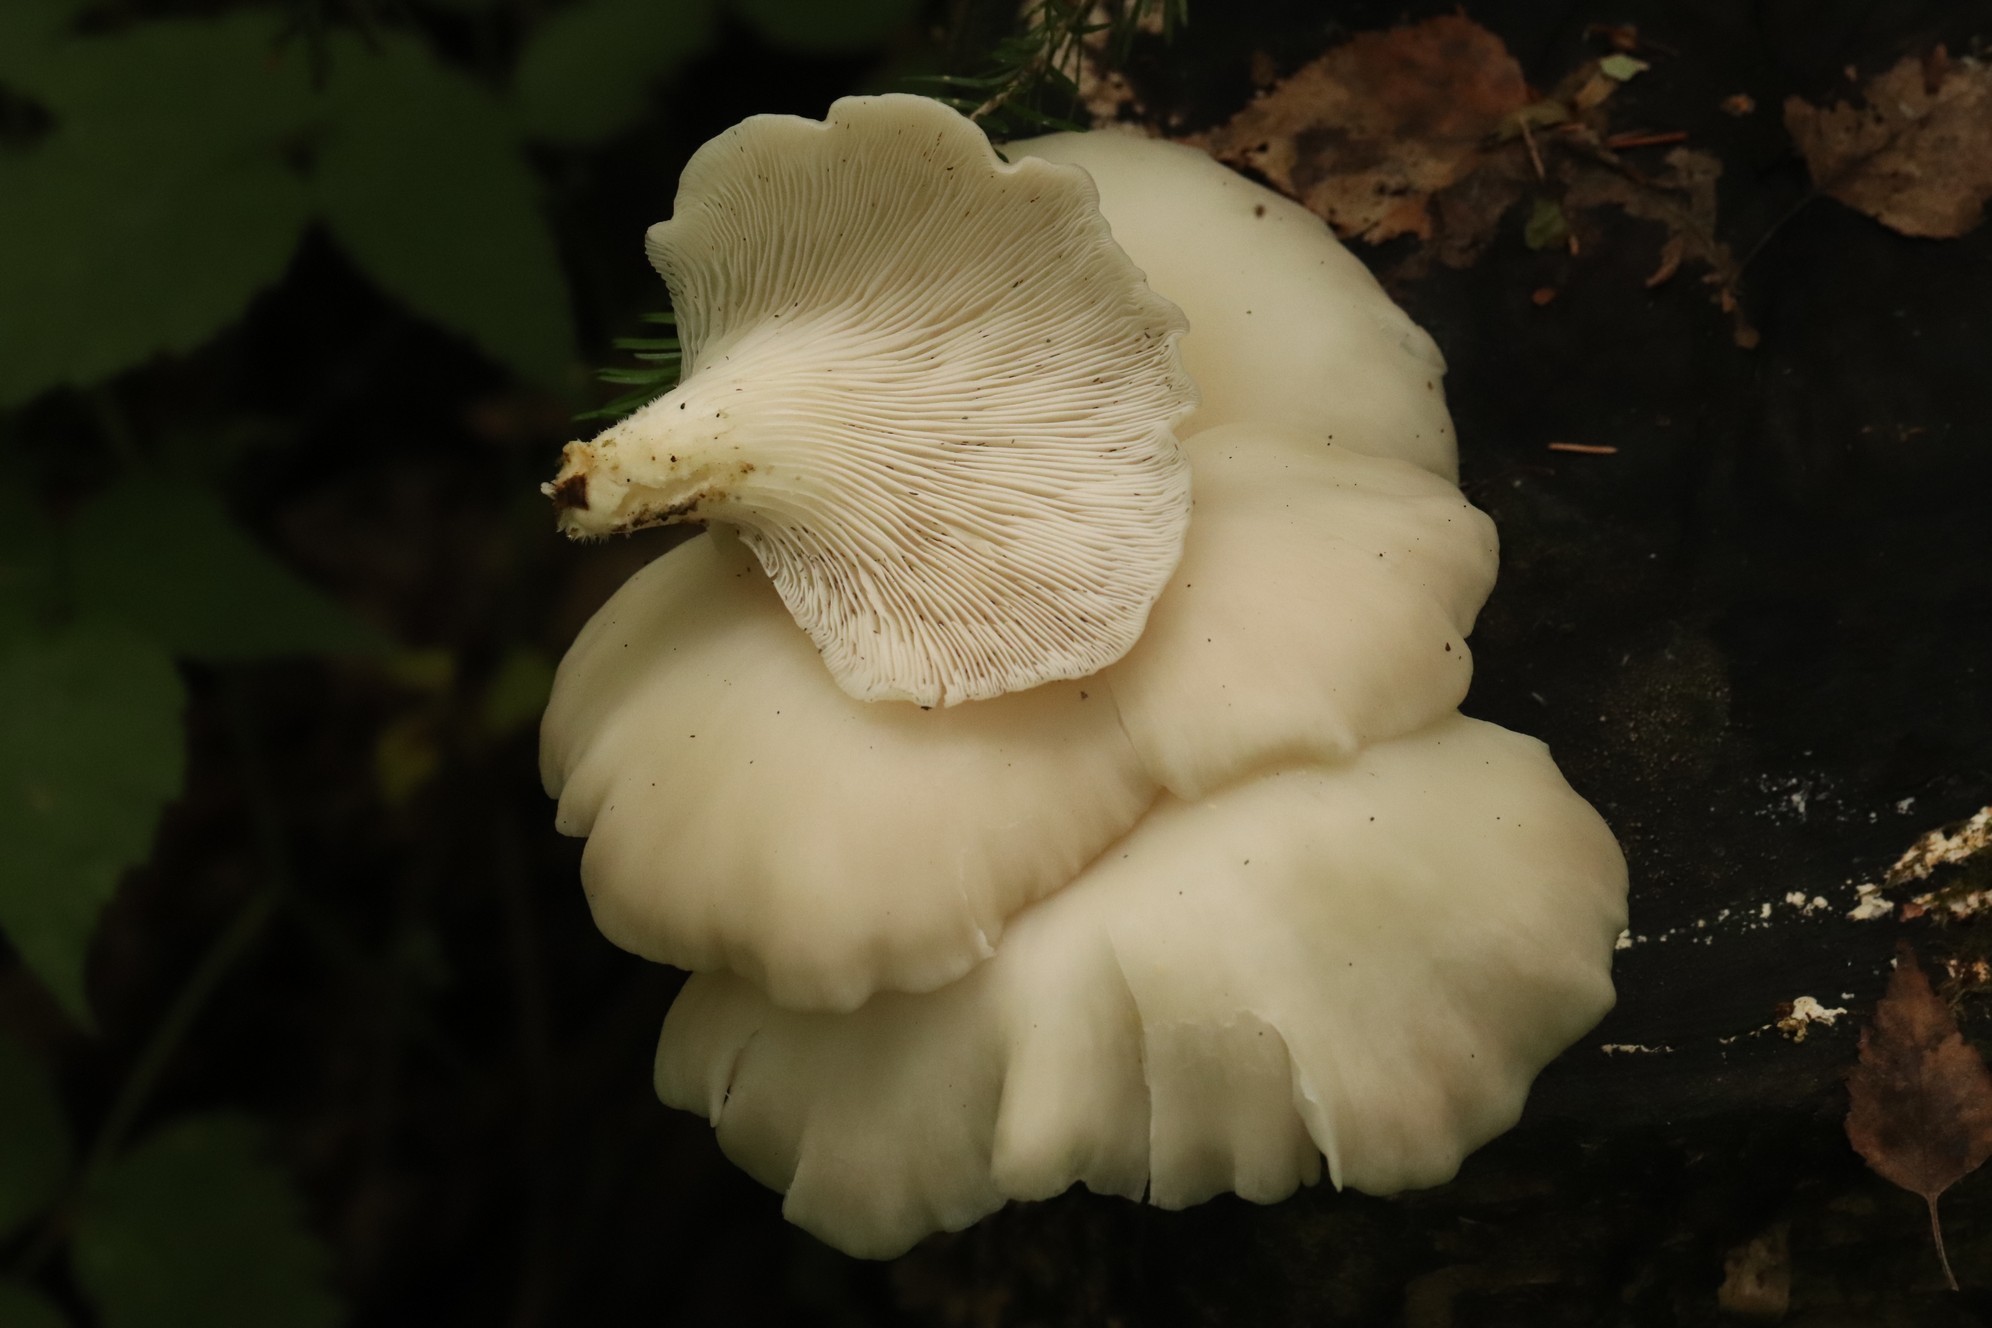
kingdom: Fungi
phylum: Basidiomycota
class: Agaricomycetes
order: Agaricales
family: Pleurotaceae
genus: Pleurotus
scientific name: Pleurotus pulmonarius
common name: Pale oyster
